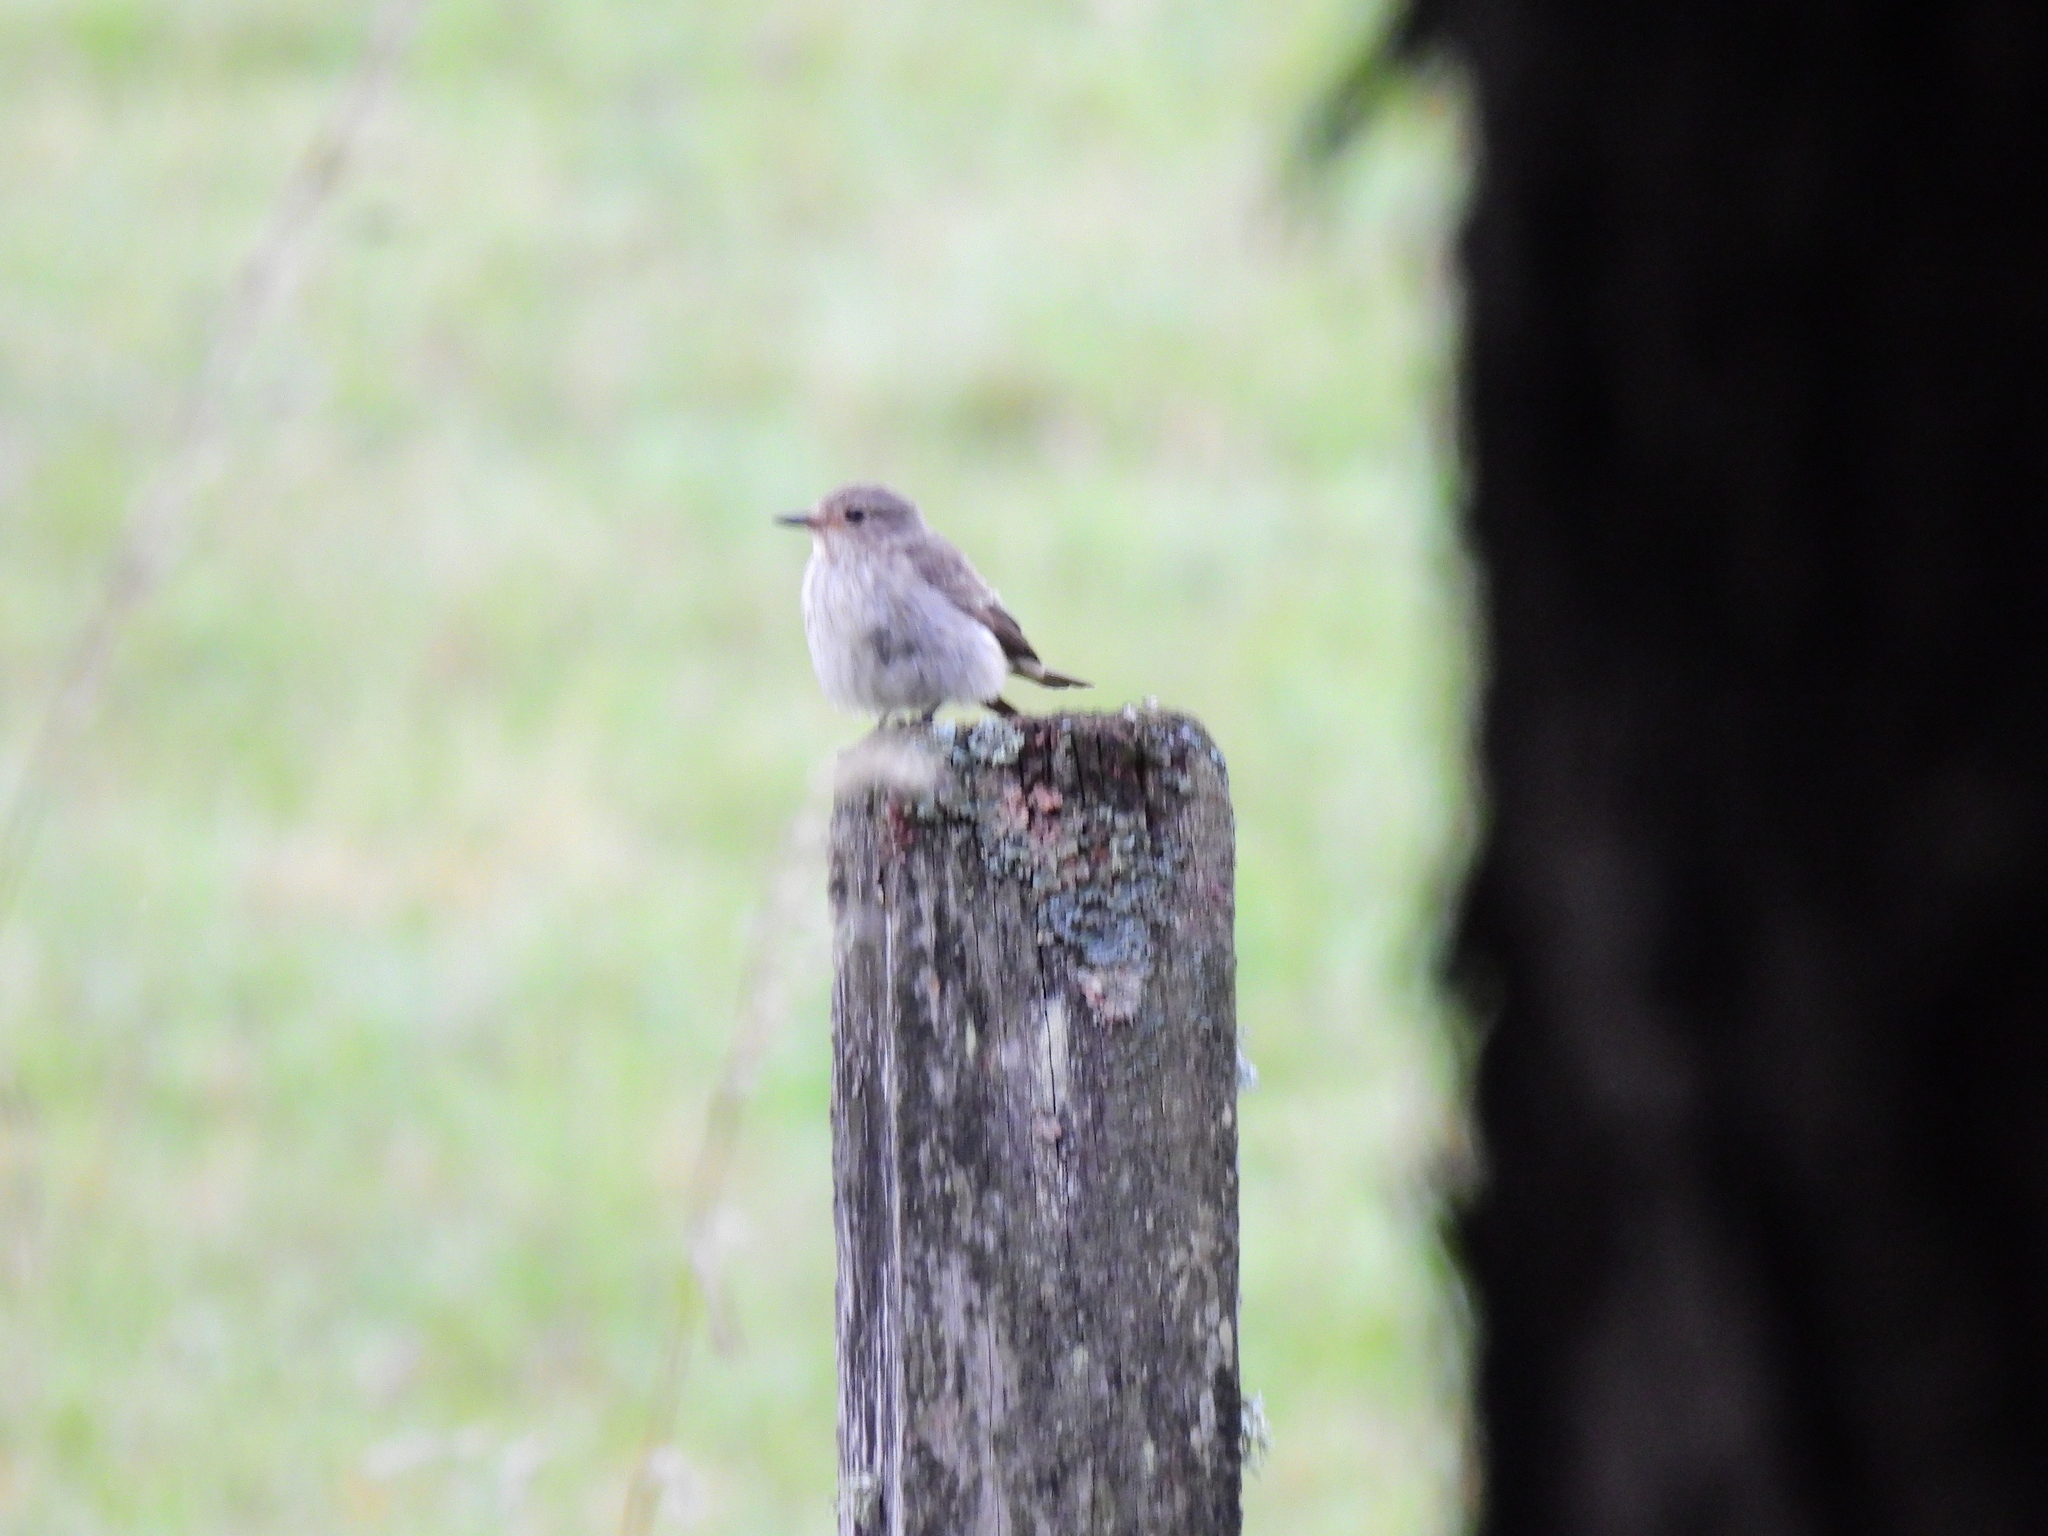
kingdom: Animalia
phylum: Chordata
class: Aves
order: Passeriformes
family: Muscicapidae
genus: Muscicapa
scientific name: Muscicapa striata
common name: Spotted flycatcher
